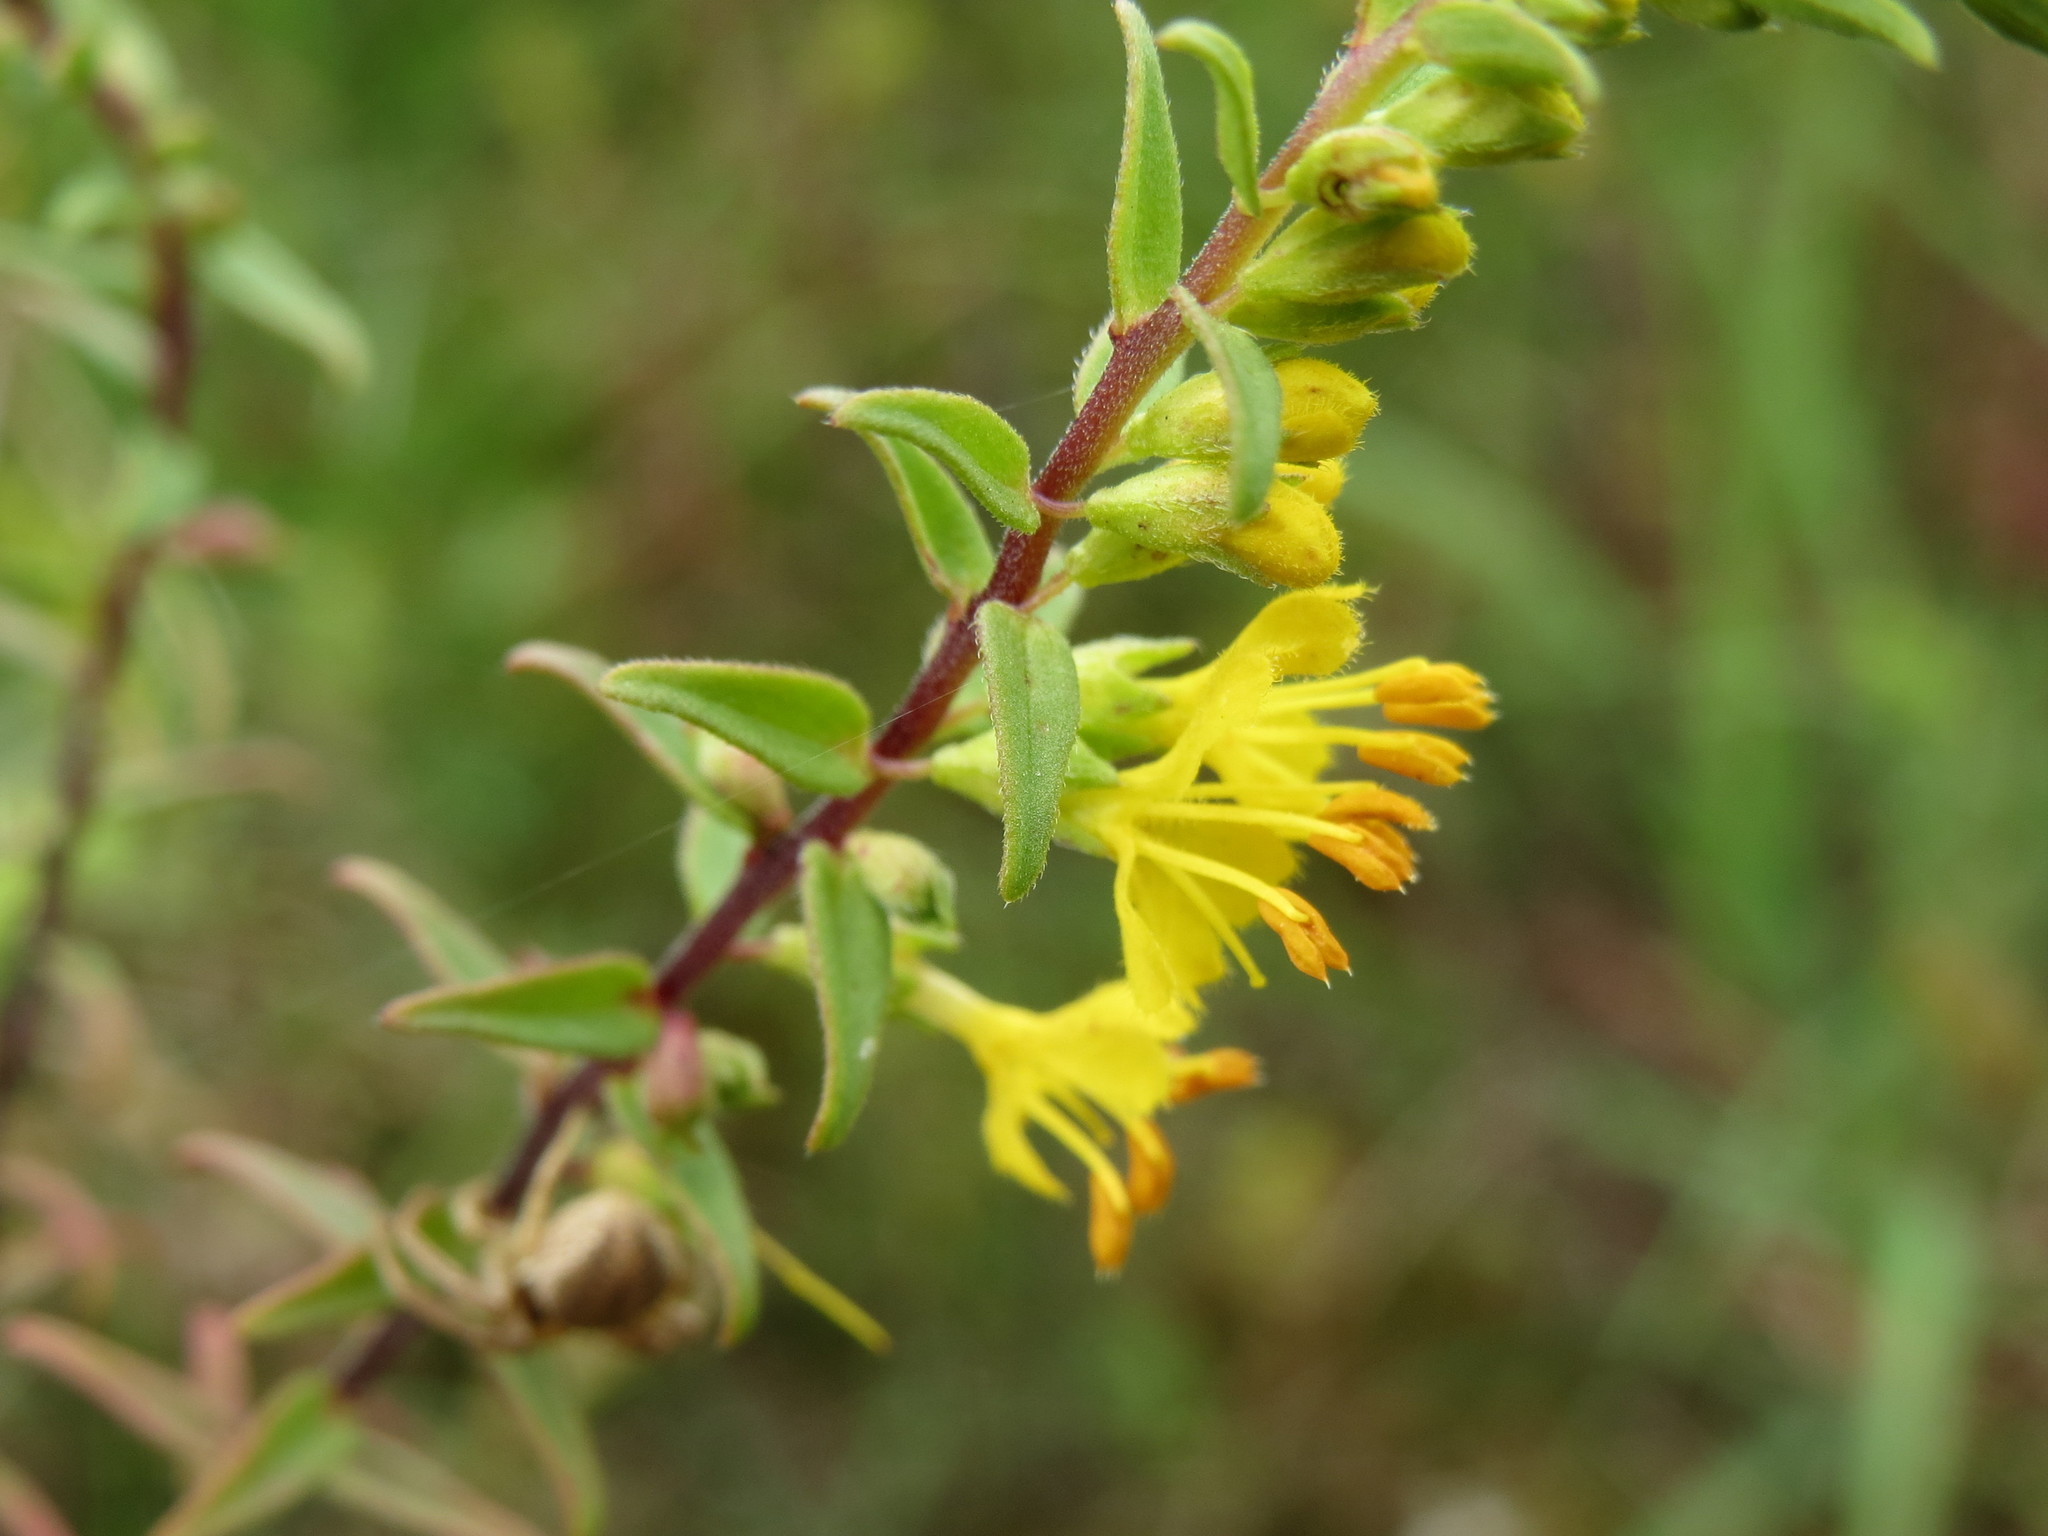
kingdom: Plantae
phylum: Tracheophyta
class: Magnoliopsida
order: Lamiales
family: Orobanchaceae
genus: Odontites
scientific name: Odontites luteus
